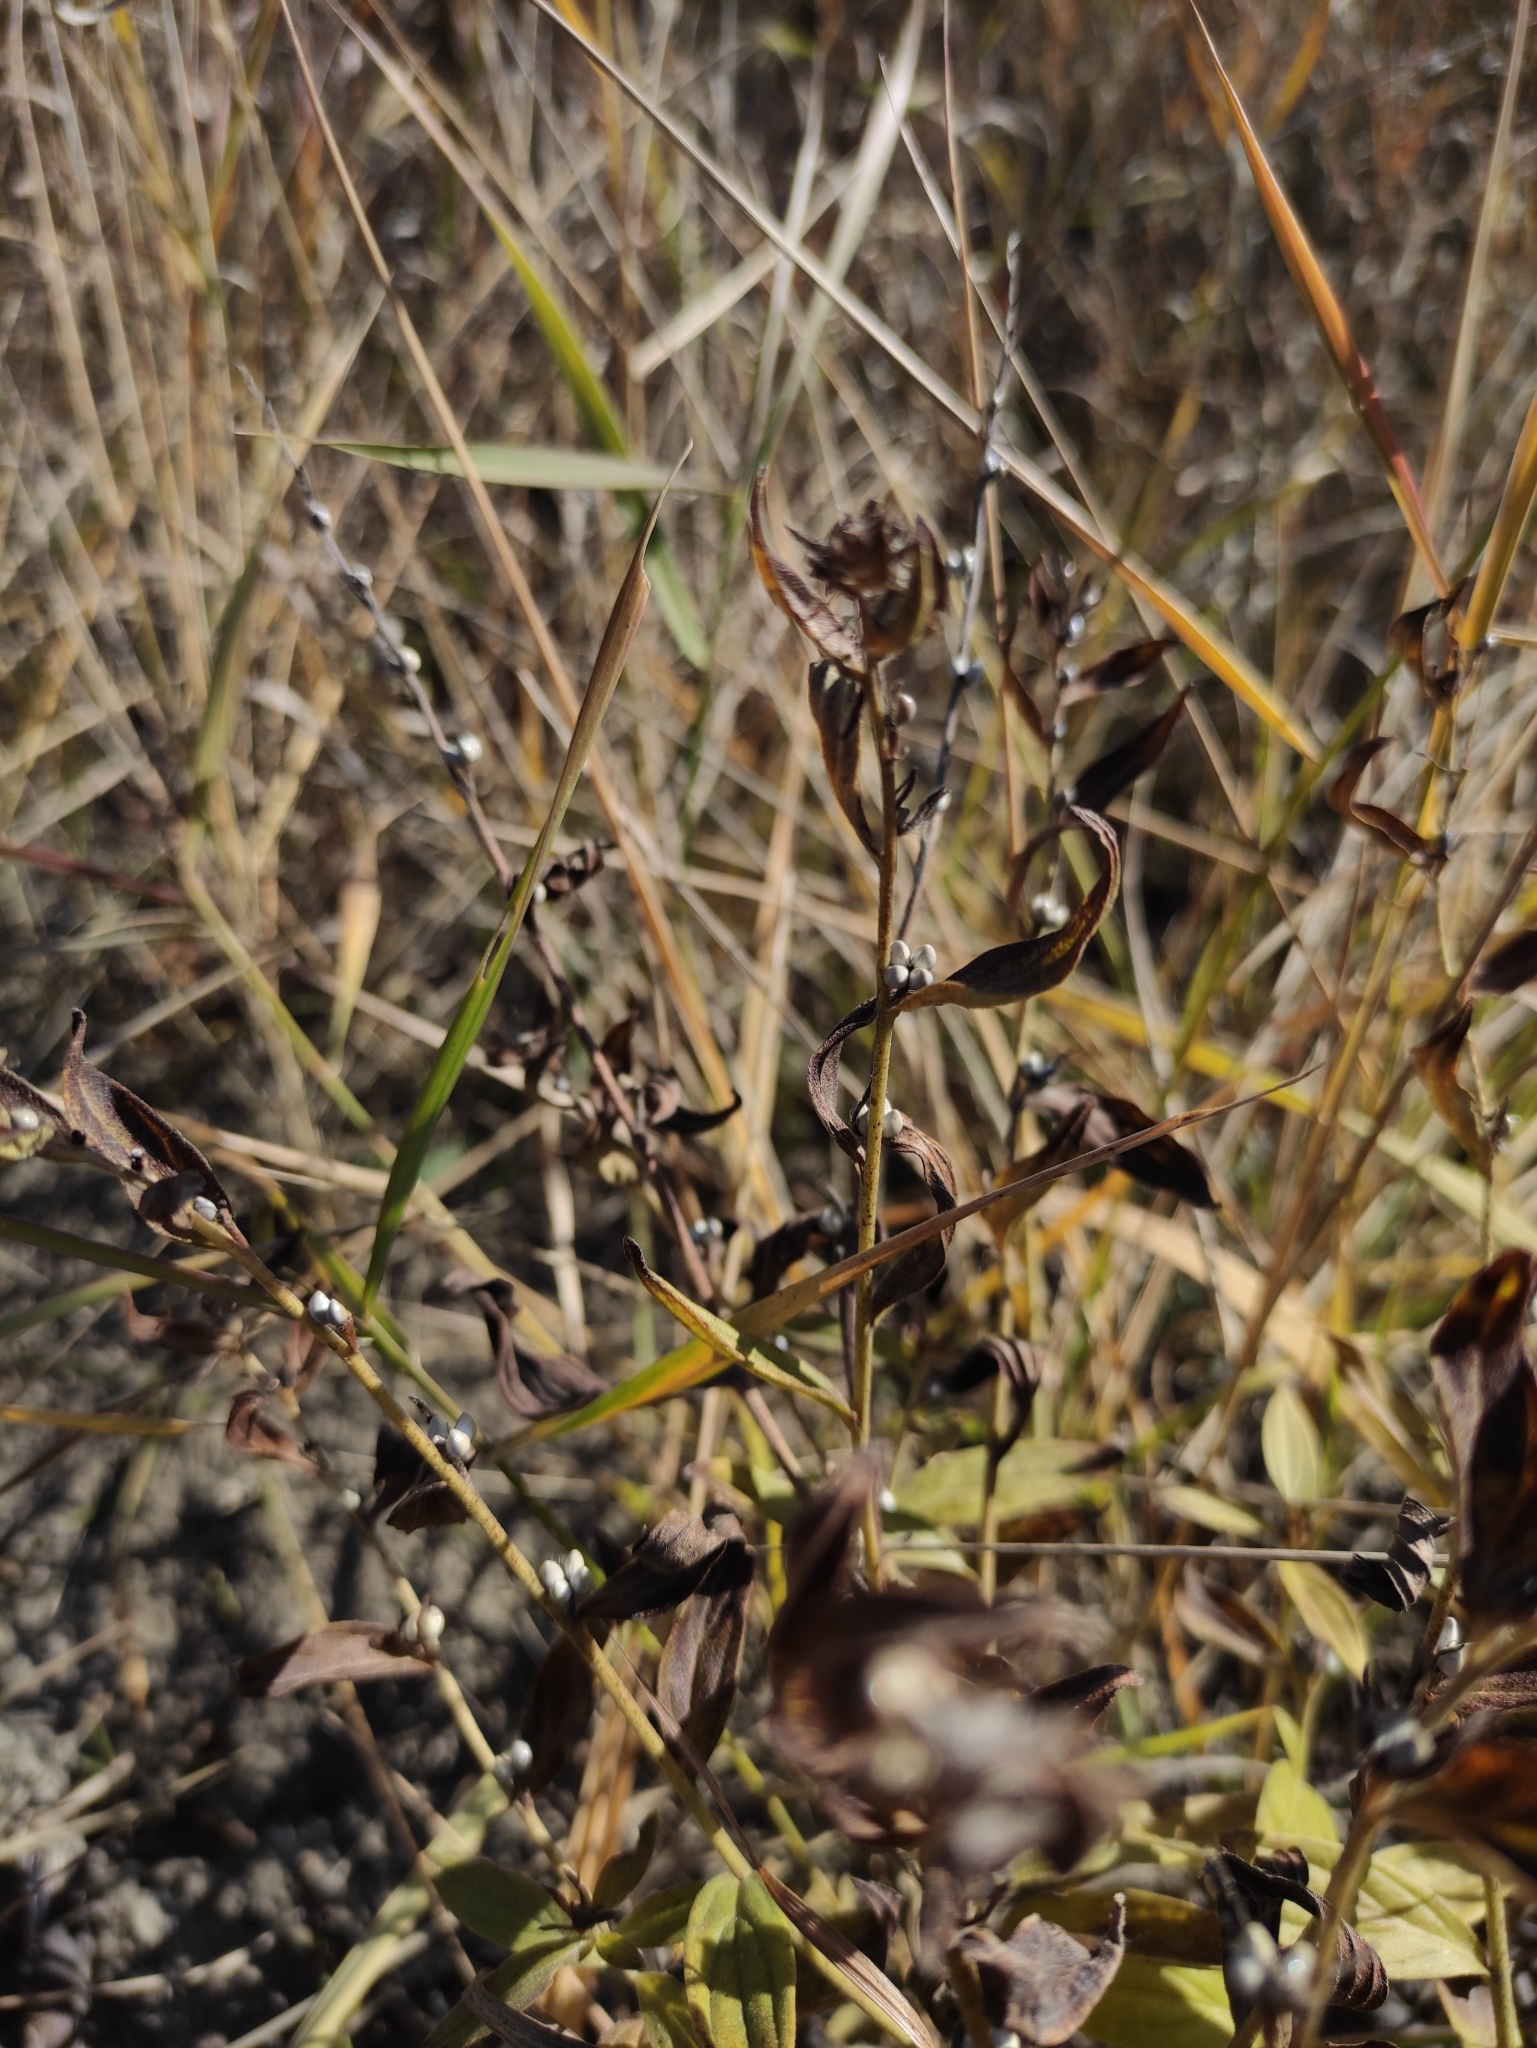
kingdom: Plantae
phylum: Tracheophyta
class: Magnoliopsida
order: Boraginales
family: Boraginaceae
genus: Lithospermum
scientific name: Lithospermum officinale
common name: Common gromwell
